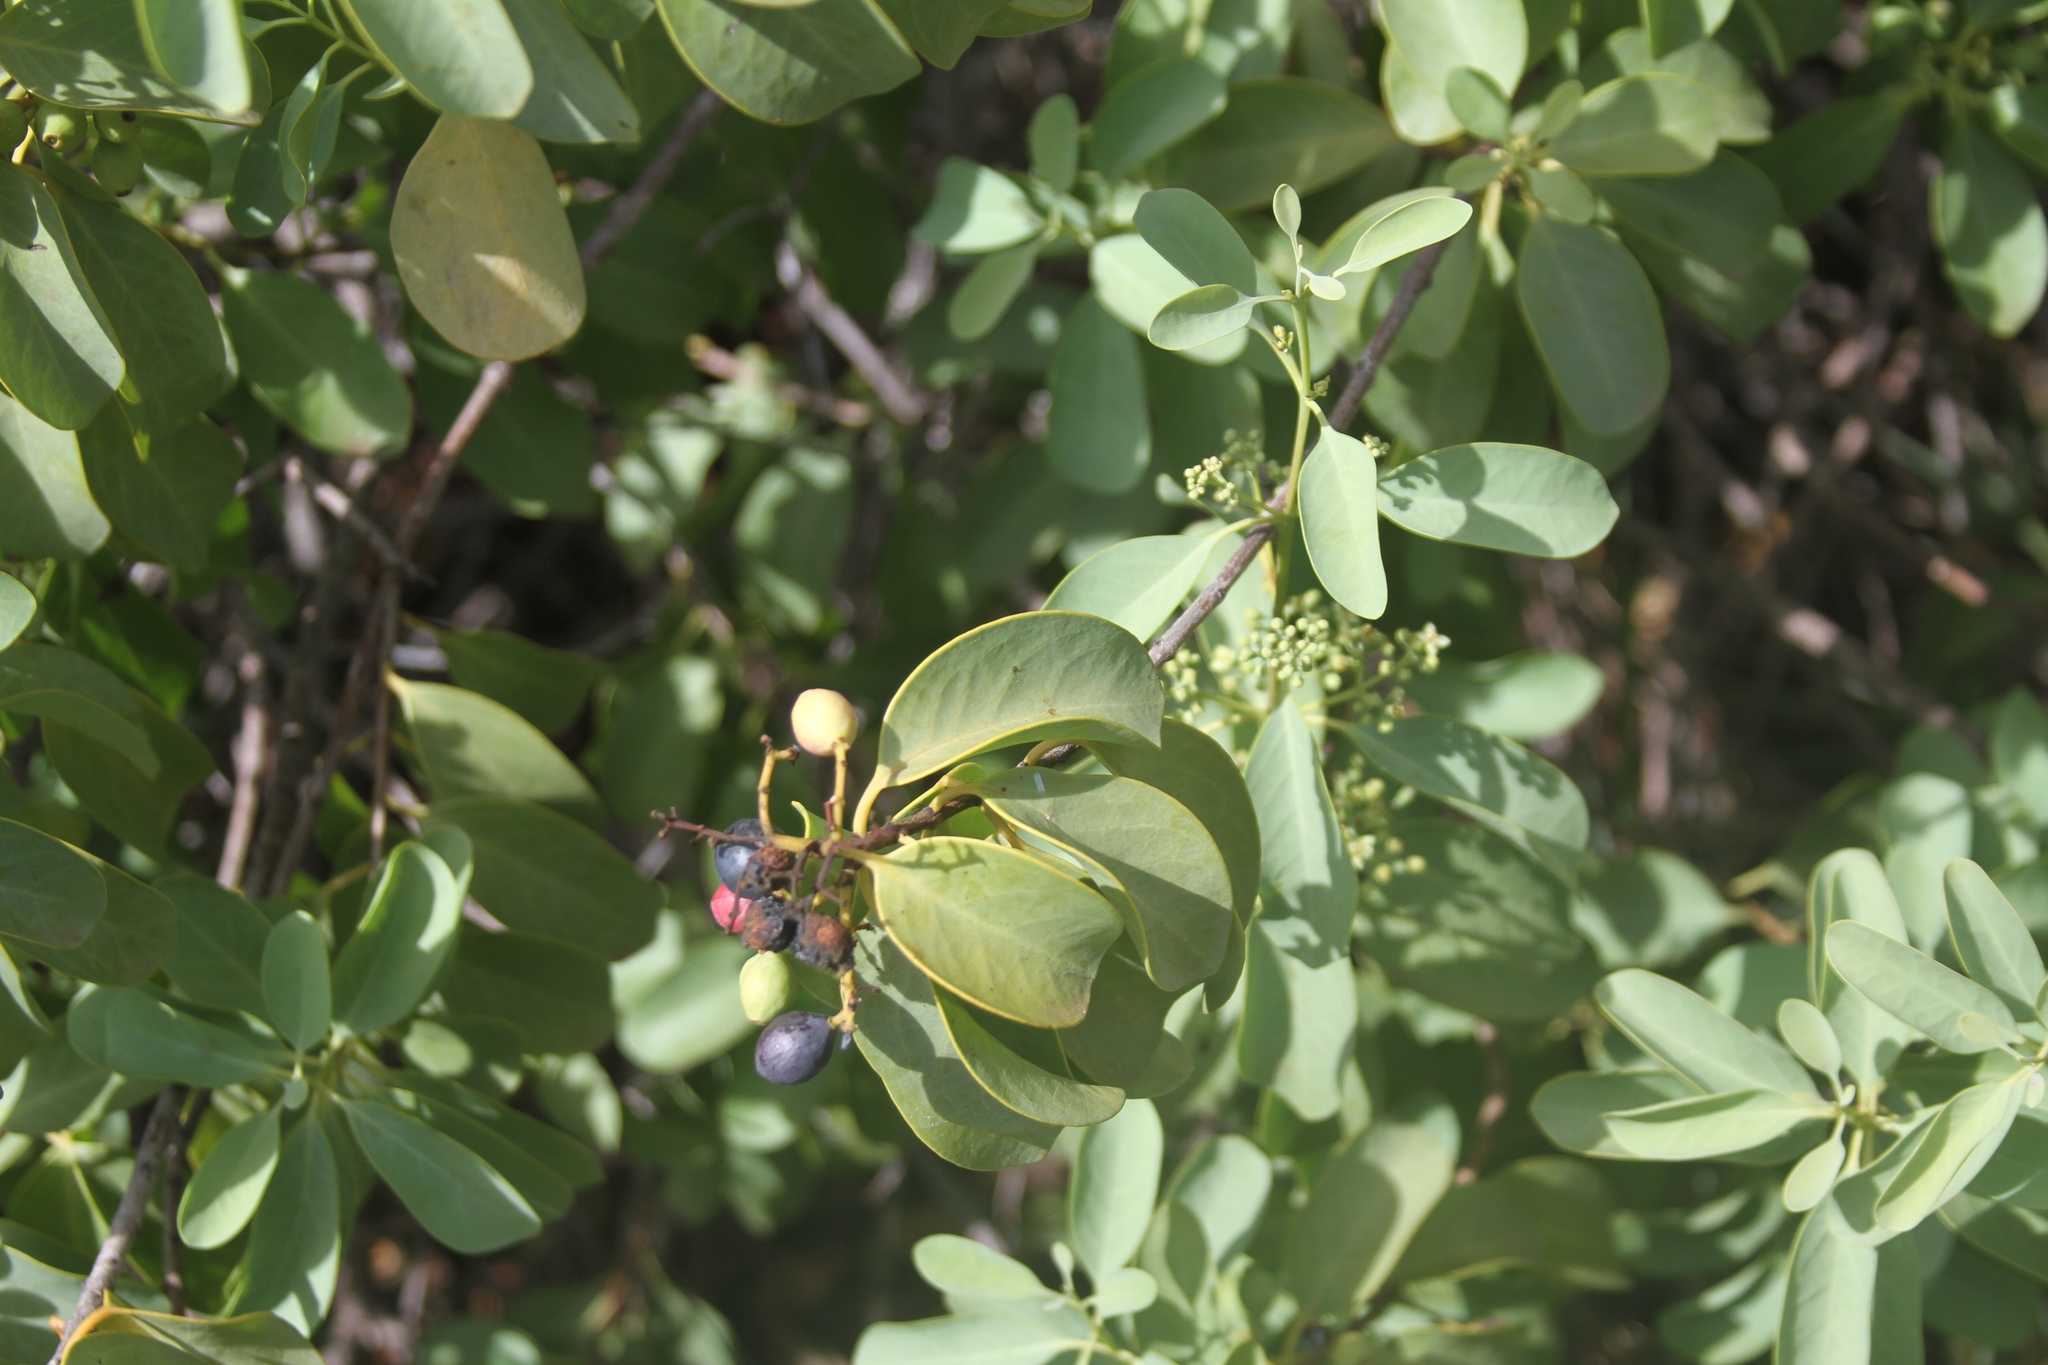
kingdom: Plantae
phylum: Tracheophyta
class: Magnoliopsida
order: Santalales
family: Santalaceae
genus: Santalum
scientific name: Santalum ellipticum
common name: Coast sandalwood
